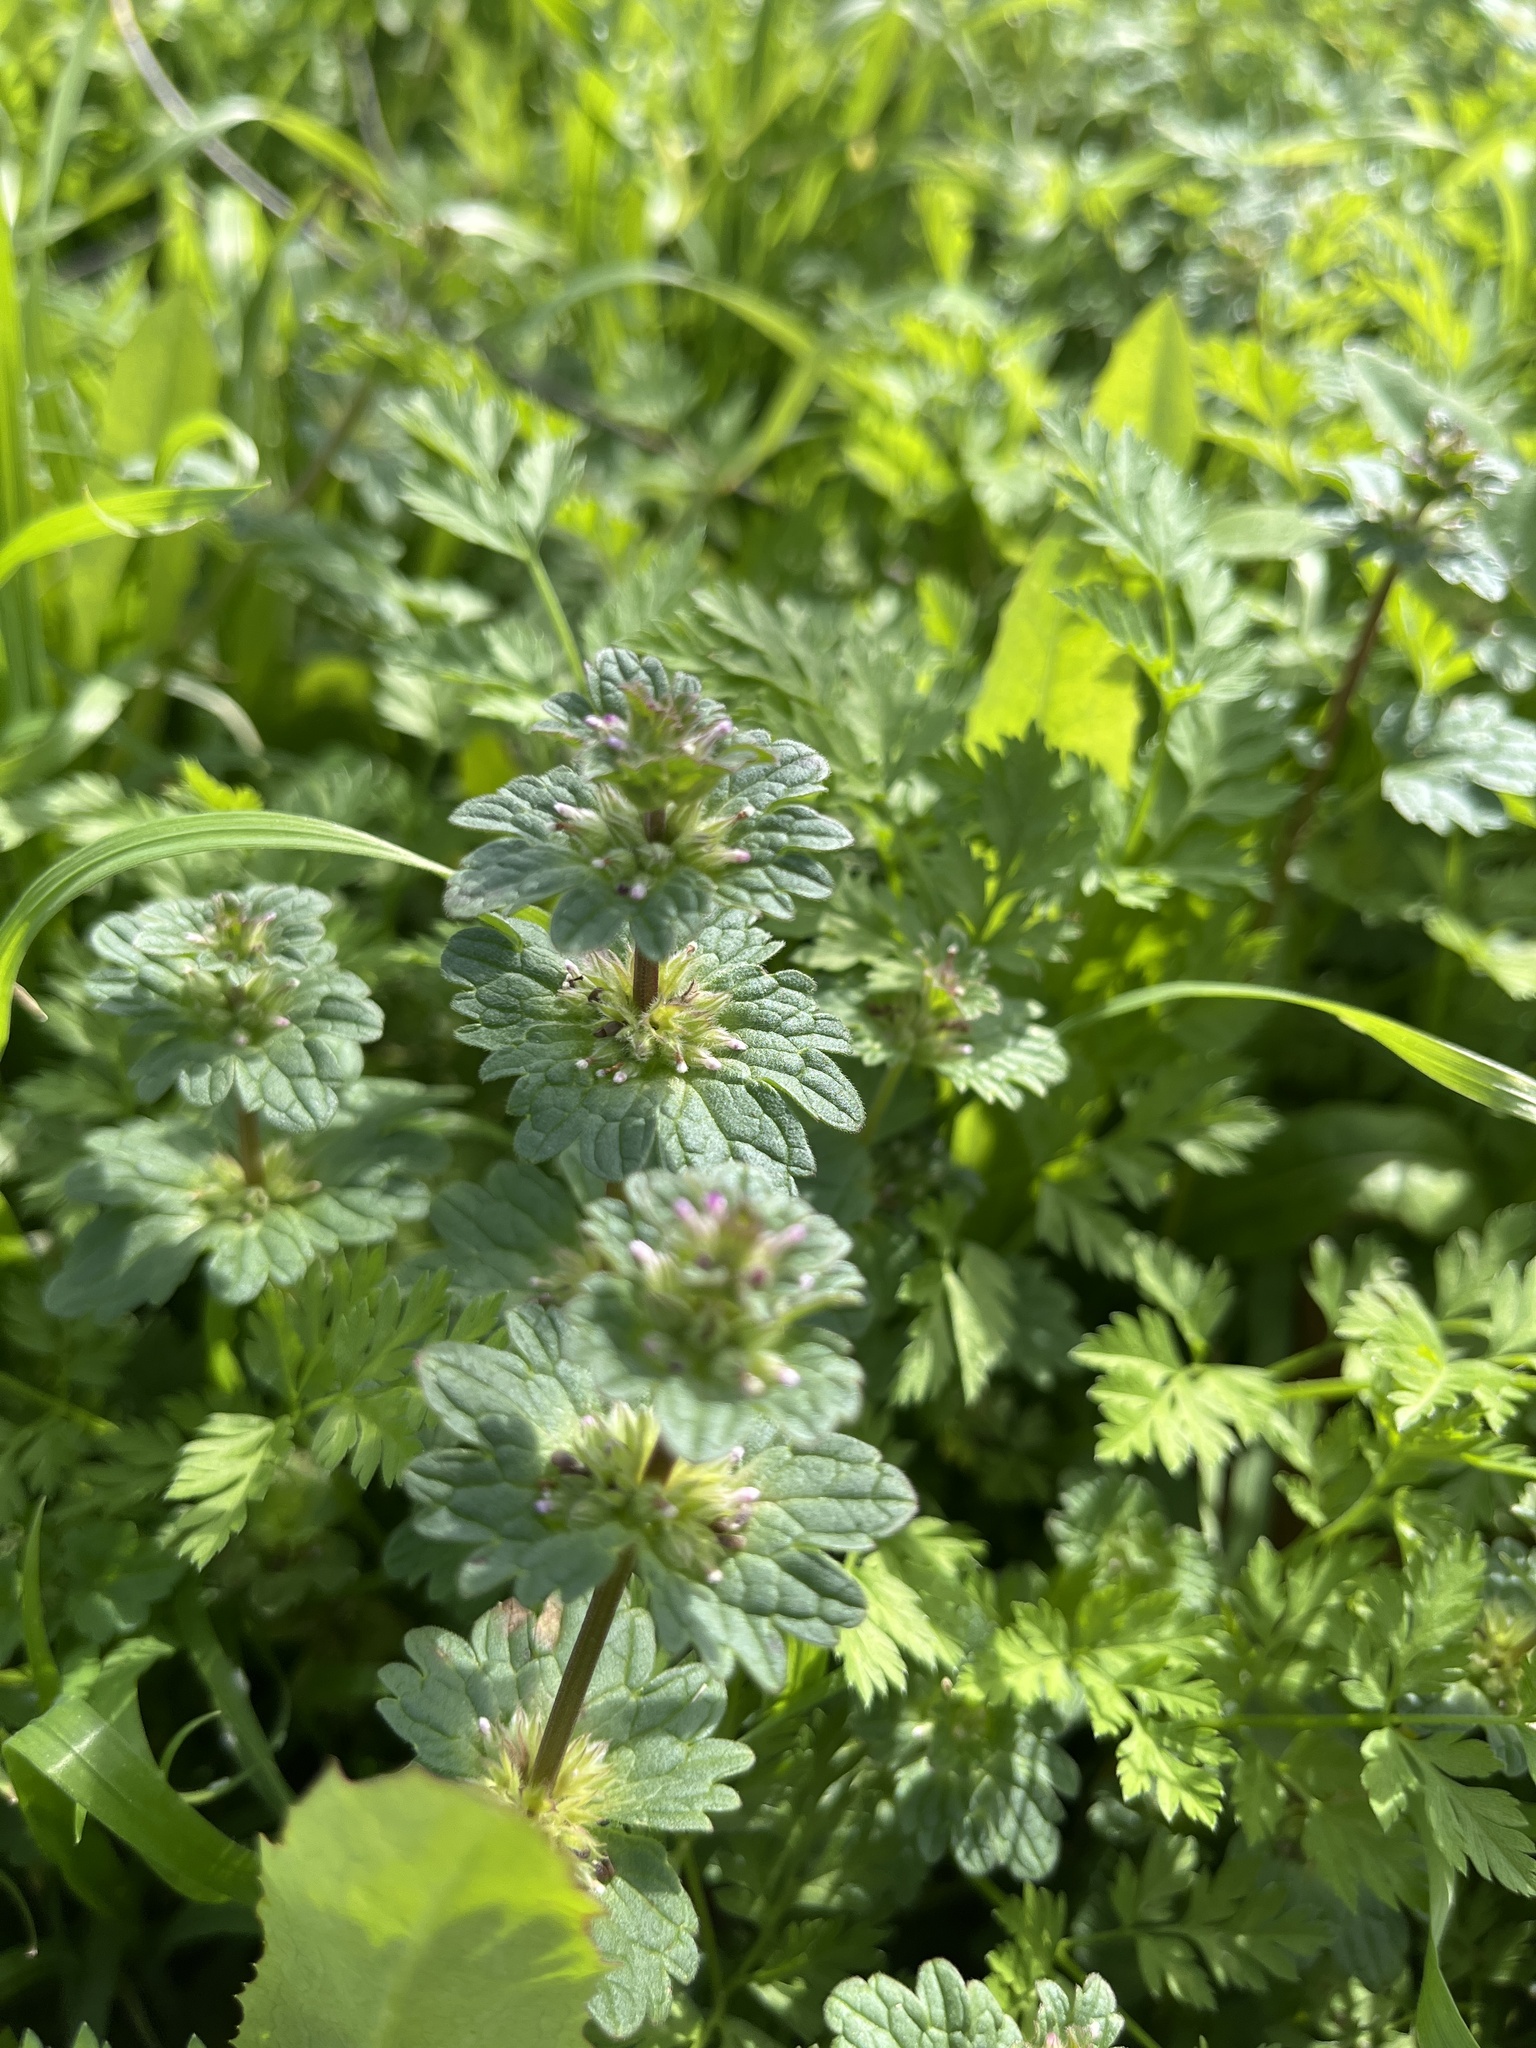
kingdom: Plantae
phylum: Tracheophyta
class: Magnoliopsida
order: Lamiales
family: Lamiaceae
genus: Lamium
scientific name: Lamium amplexicaule
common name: Henbit dead-nettle
